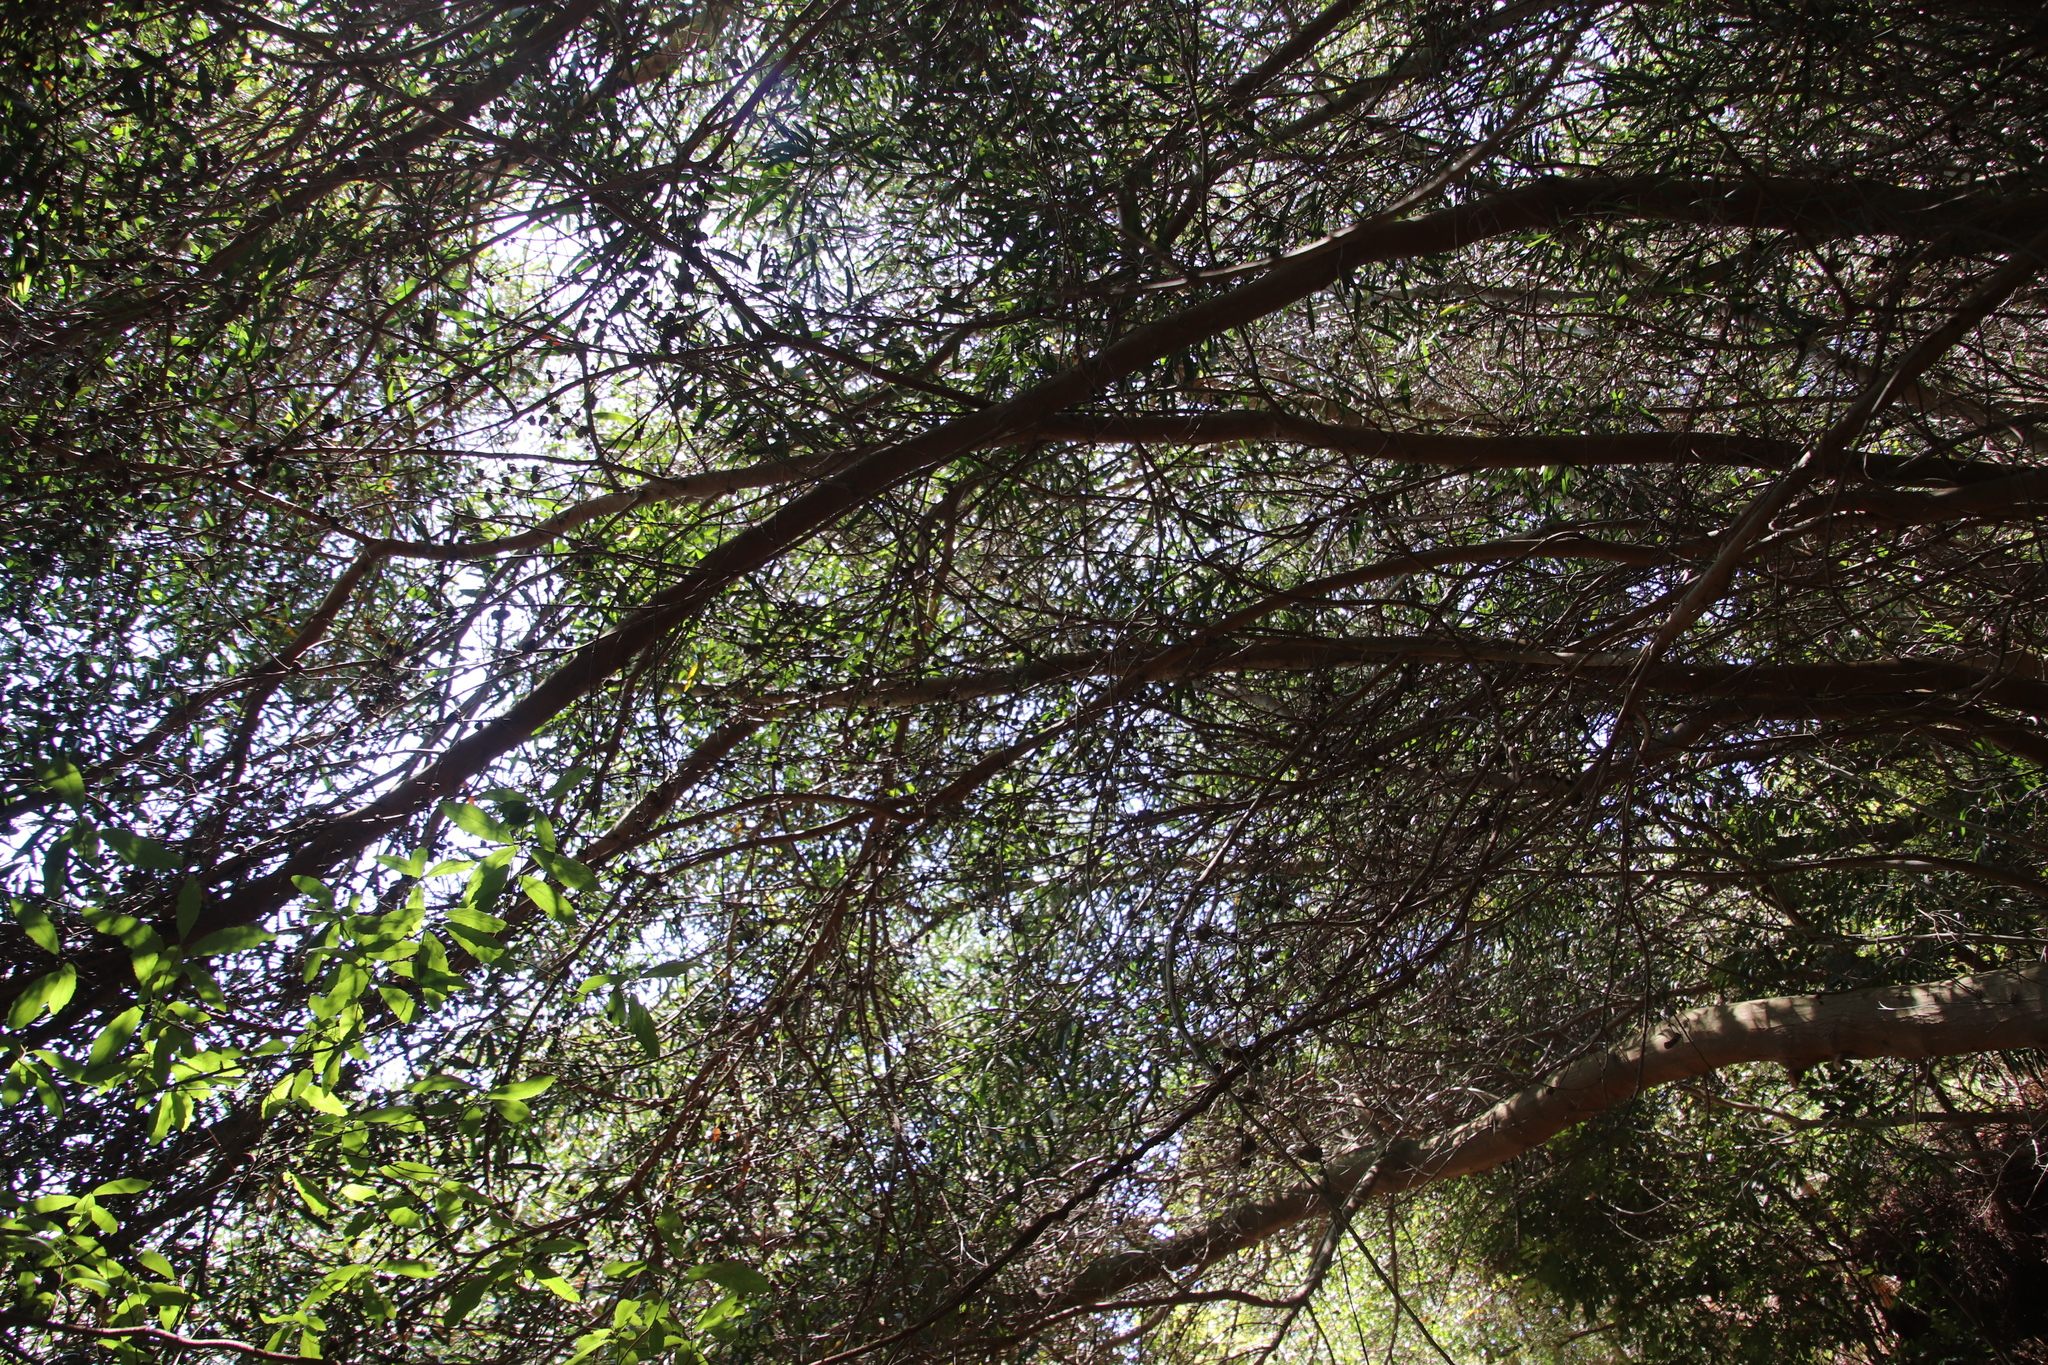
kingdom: Plantae
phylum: Tracheophyta
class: Magnoliopsida
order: Fabales
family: Fabaceae
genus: Acacia
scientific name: Acacia longifolia
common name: Sydney golden wattle
